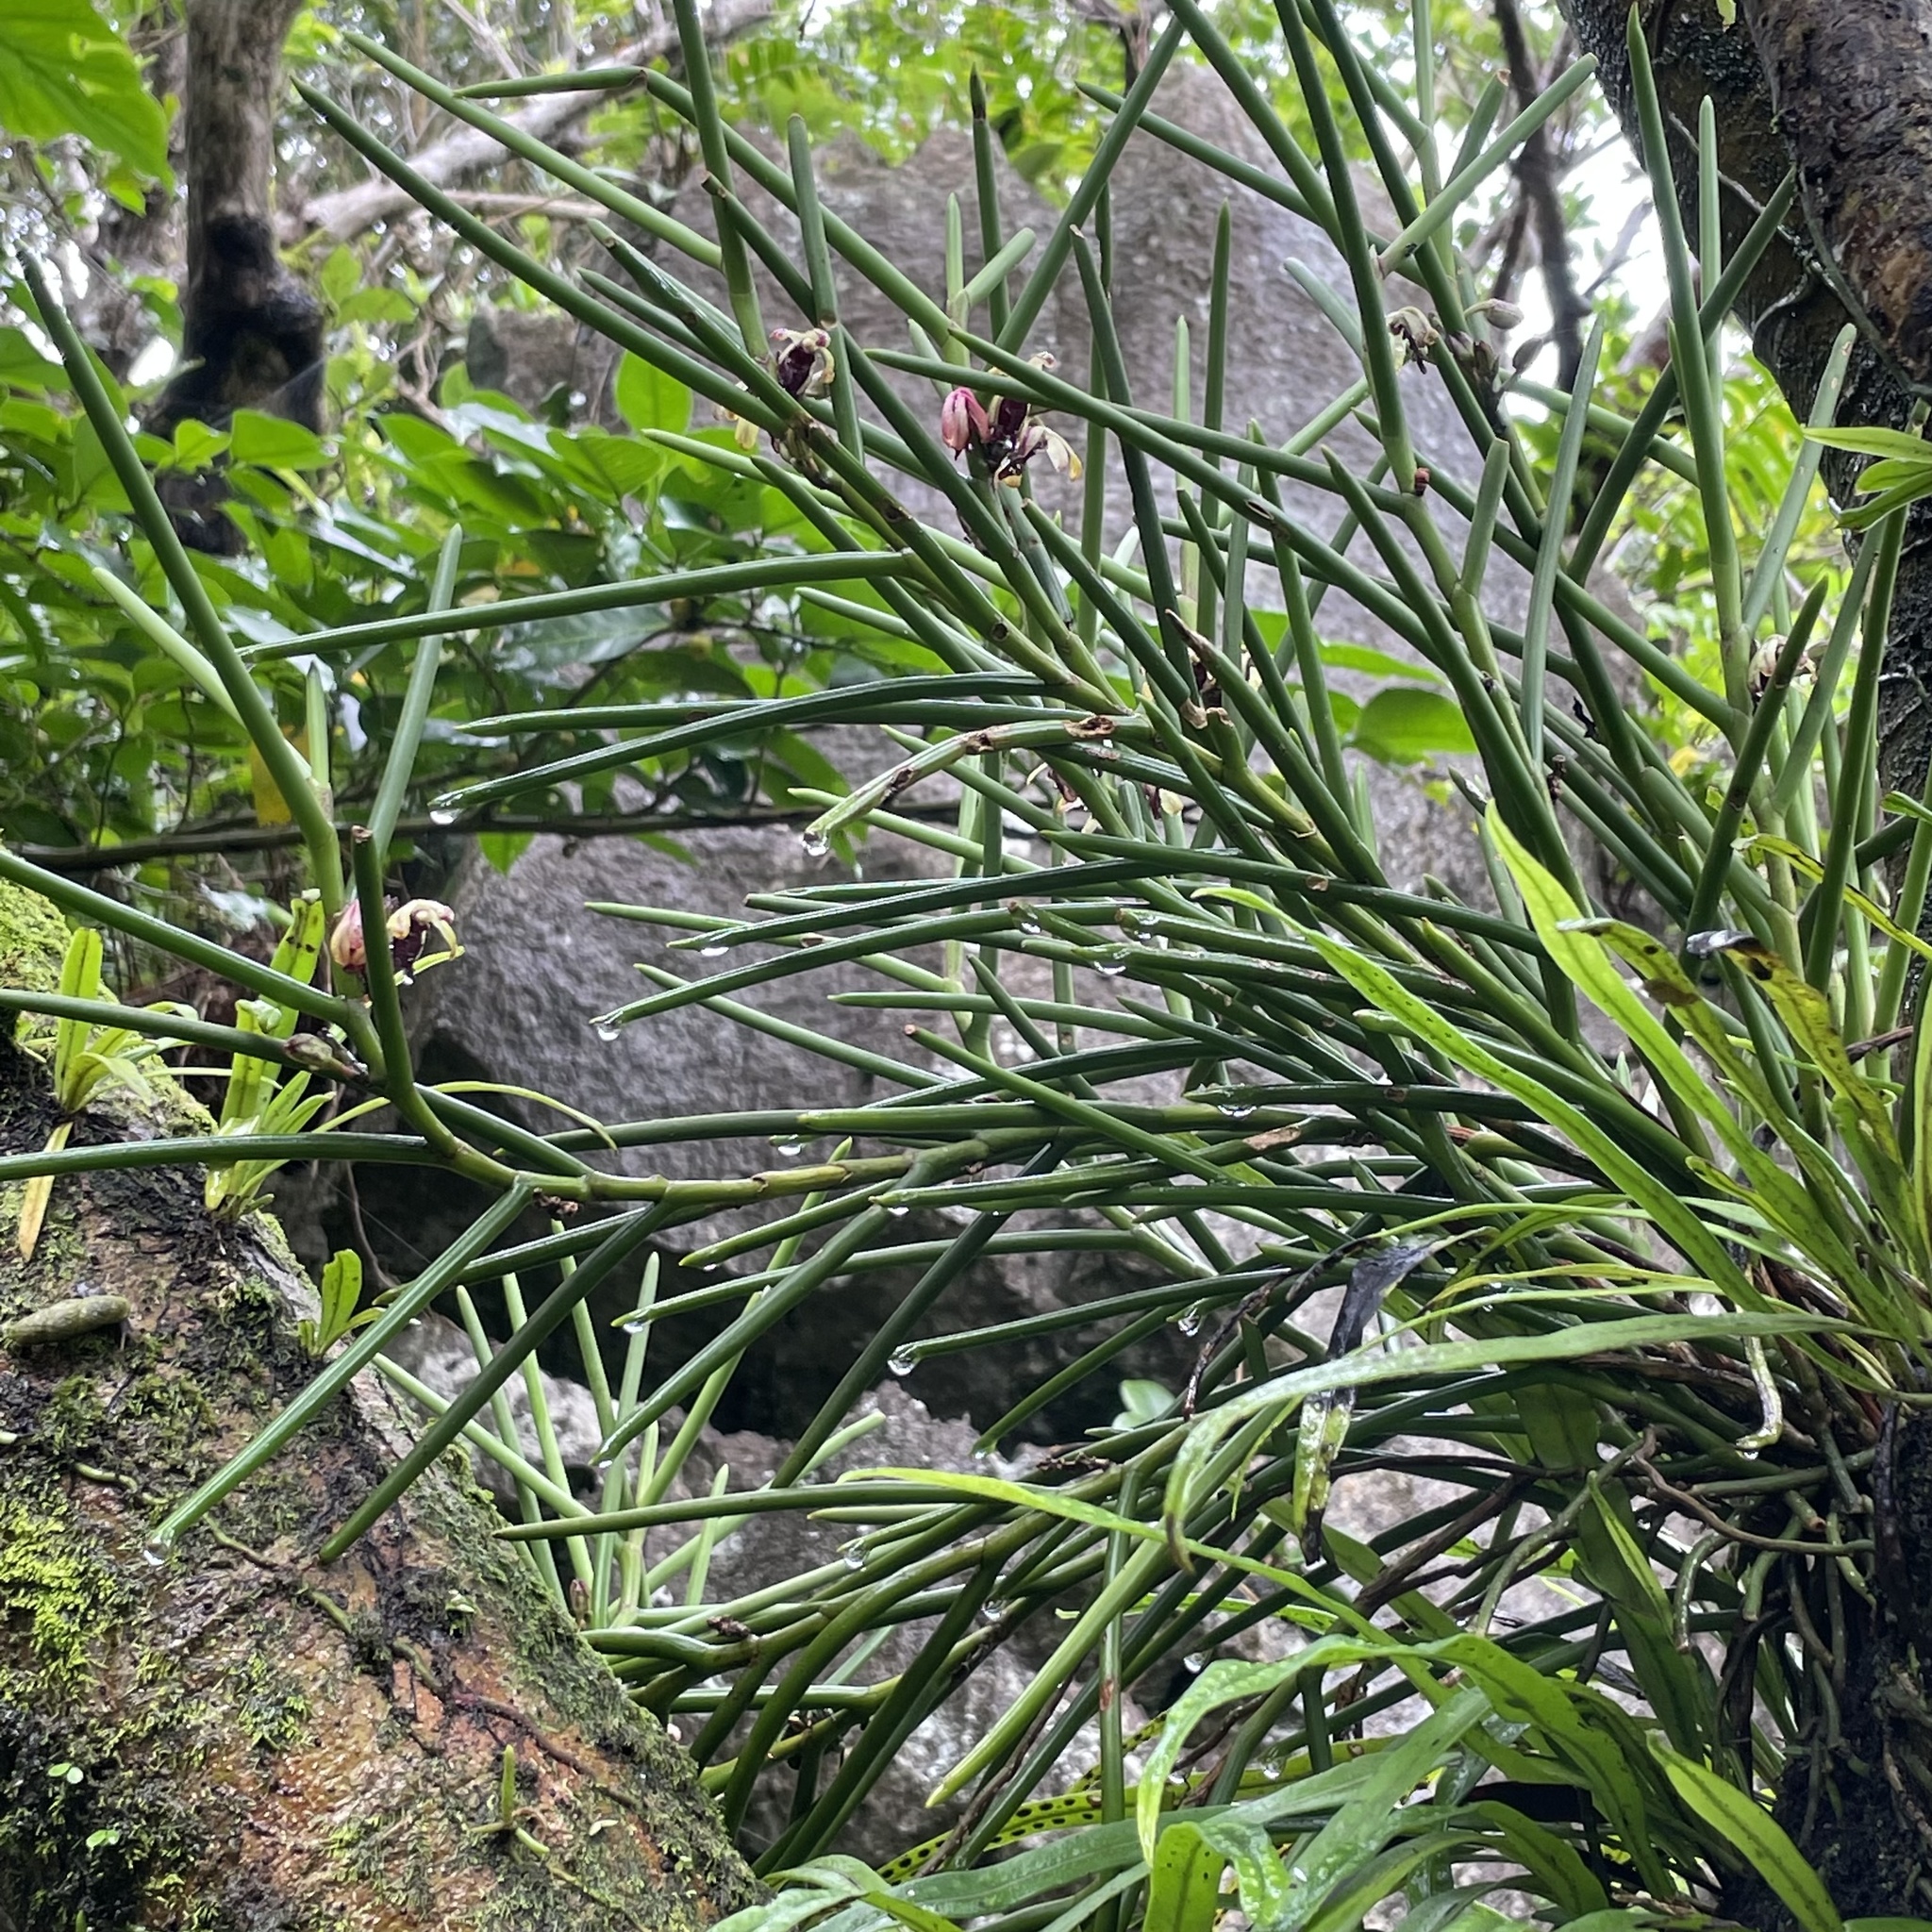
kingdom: Plantae
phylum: Tracheophyta
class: Liliopsida
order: Asparagales
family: Orchidaceae
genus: Luisia
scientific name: Luisia teres
